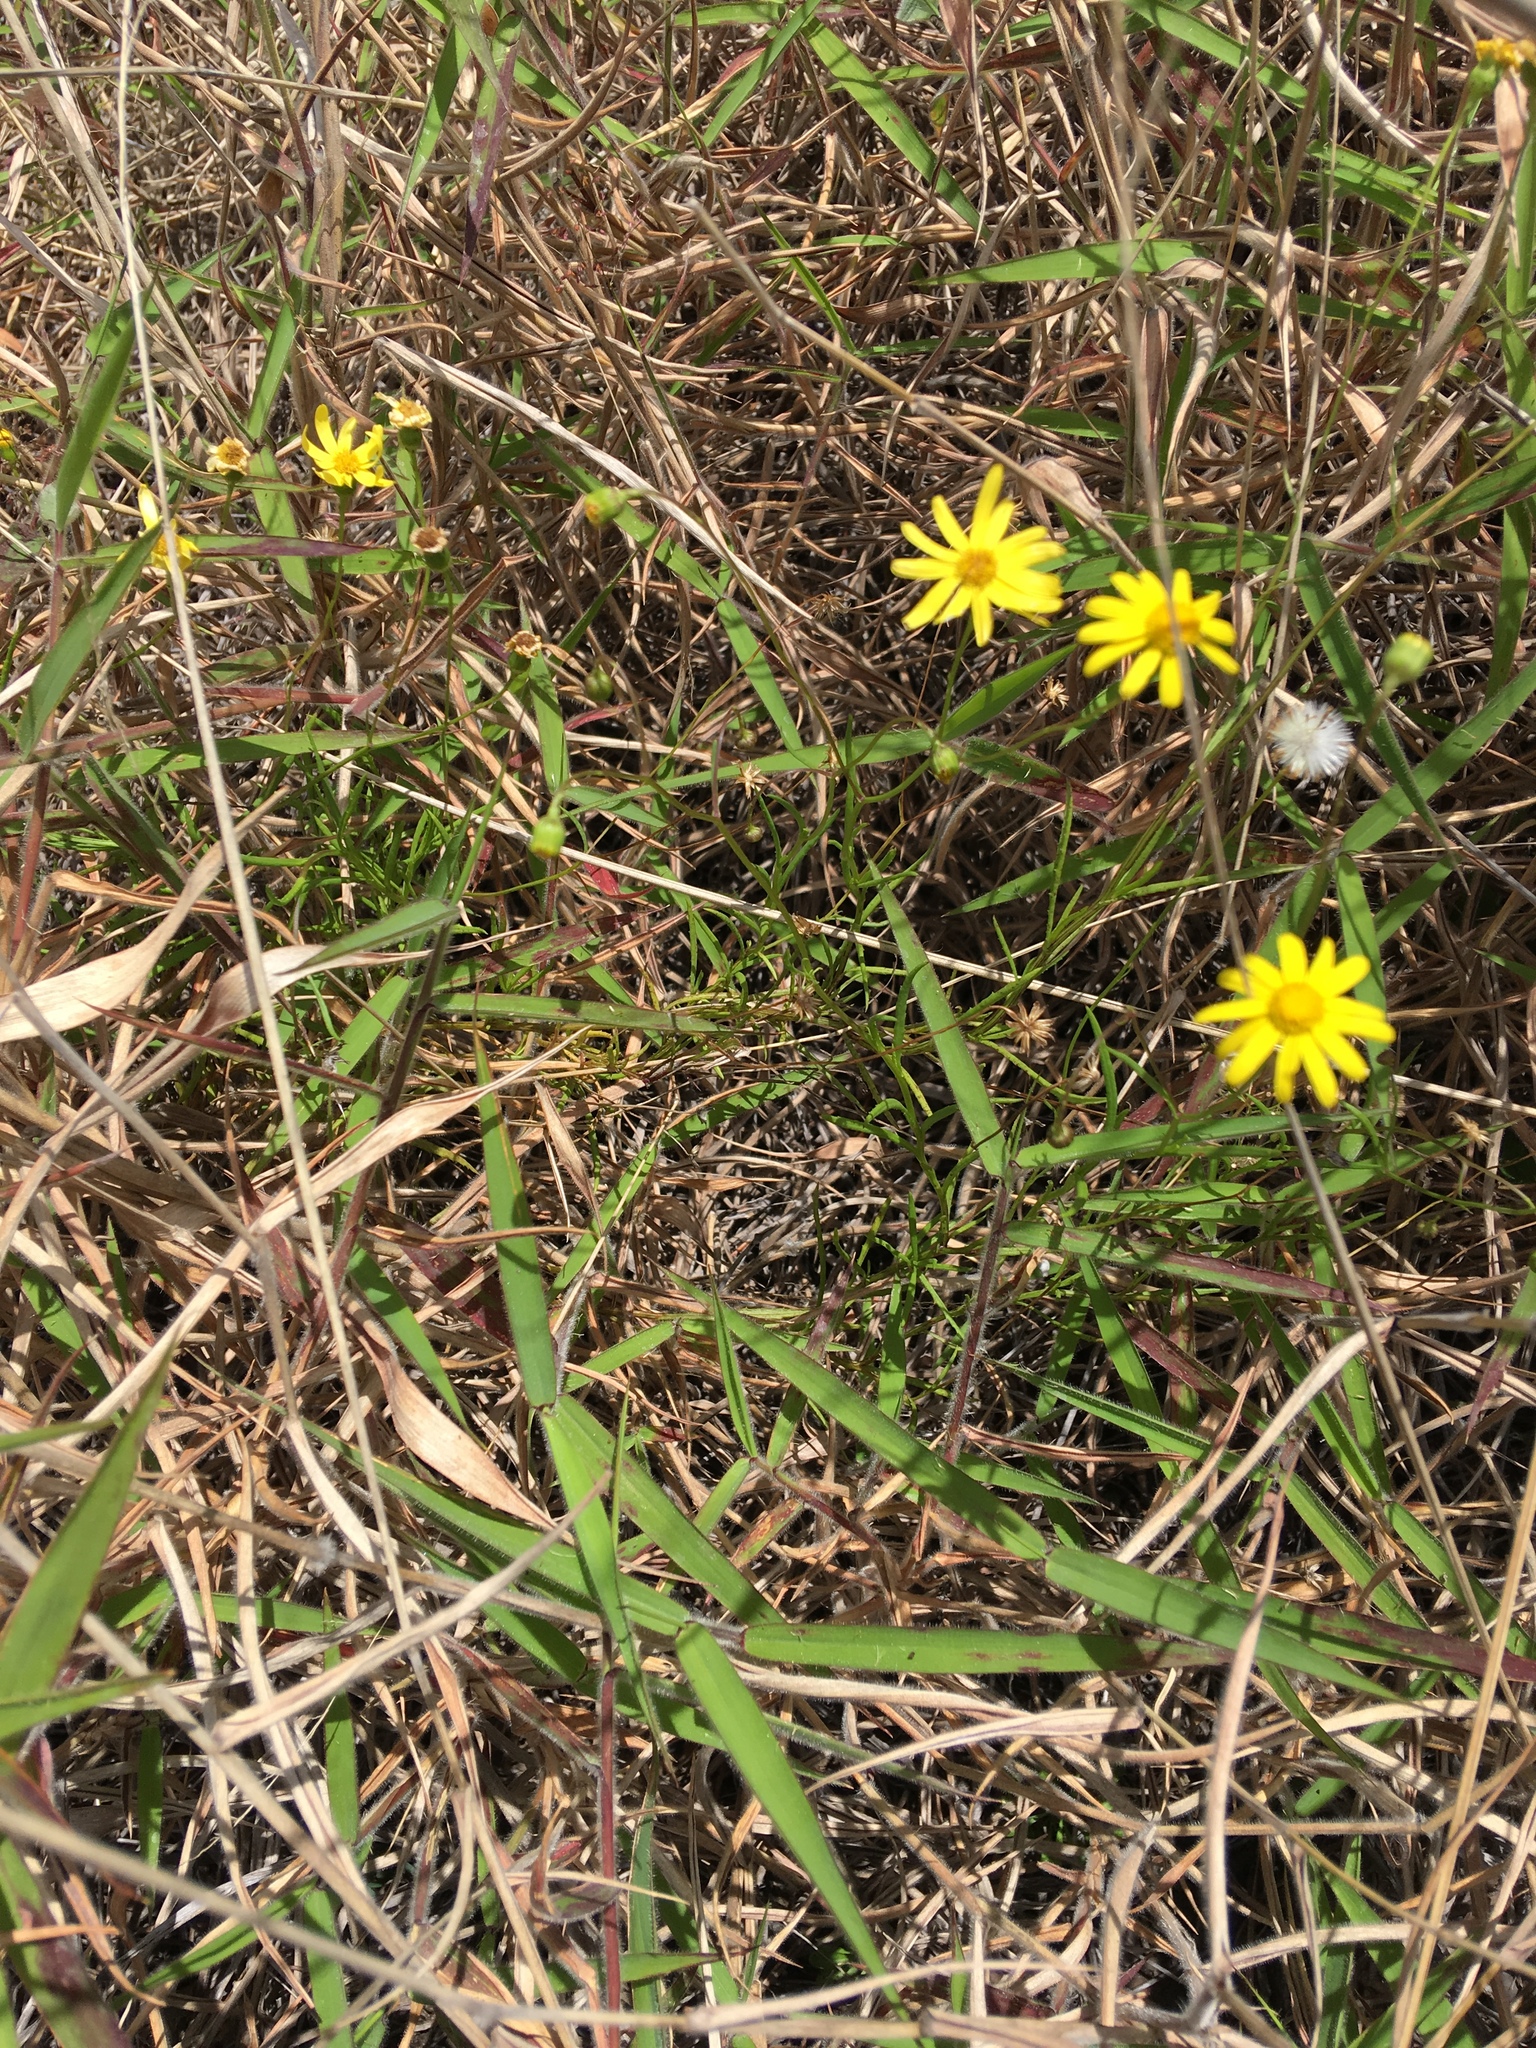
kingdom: Plantae
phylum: Tracheophyta
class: Magnoliopsida
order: Asterales
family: Asteraceae
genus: Senecio
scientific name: Senecio madagascariensis
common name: Madagascar ragwort
